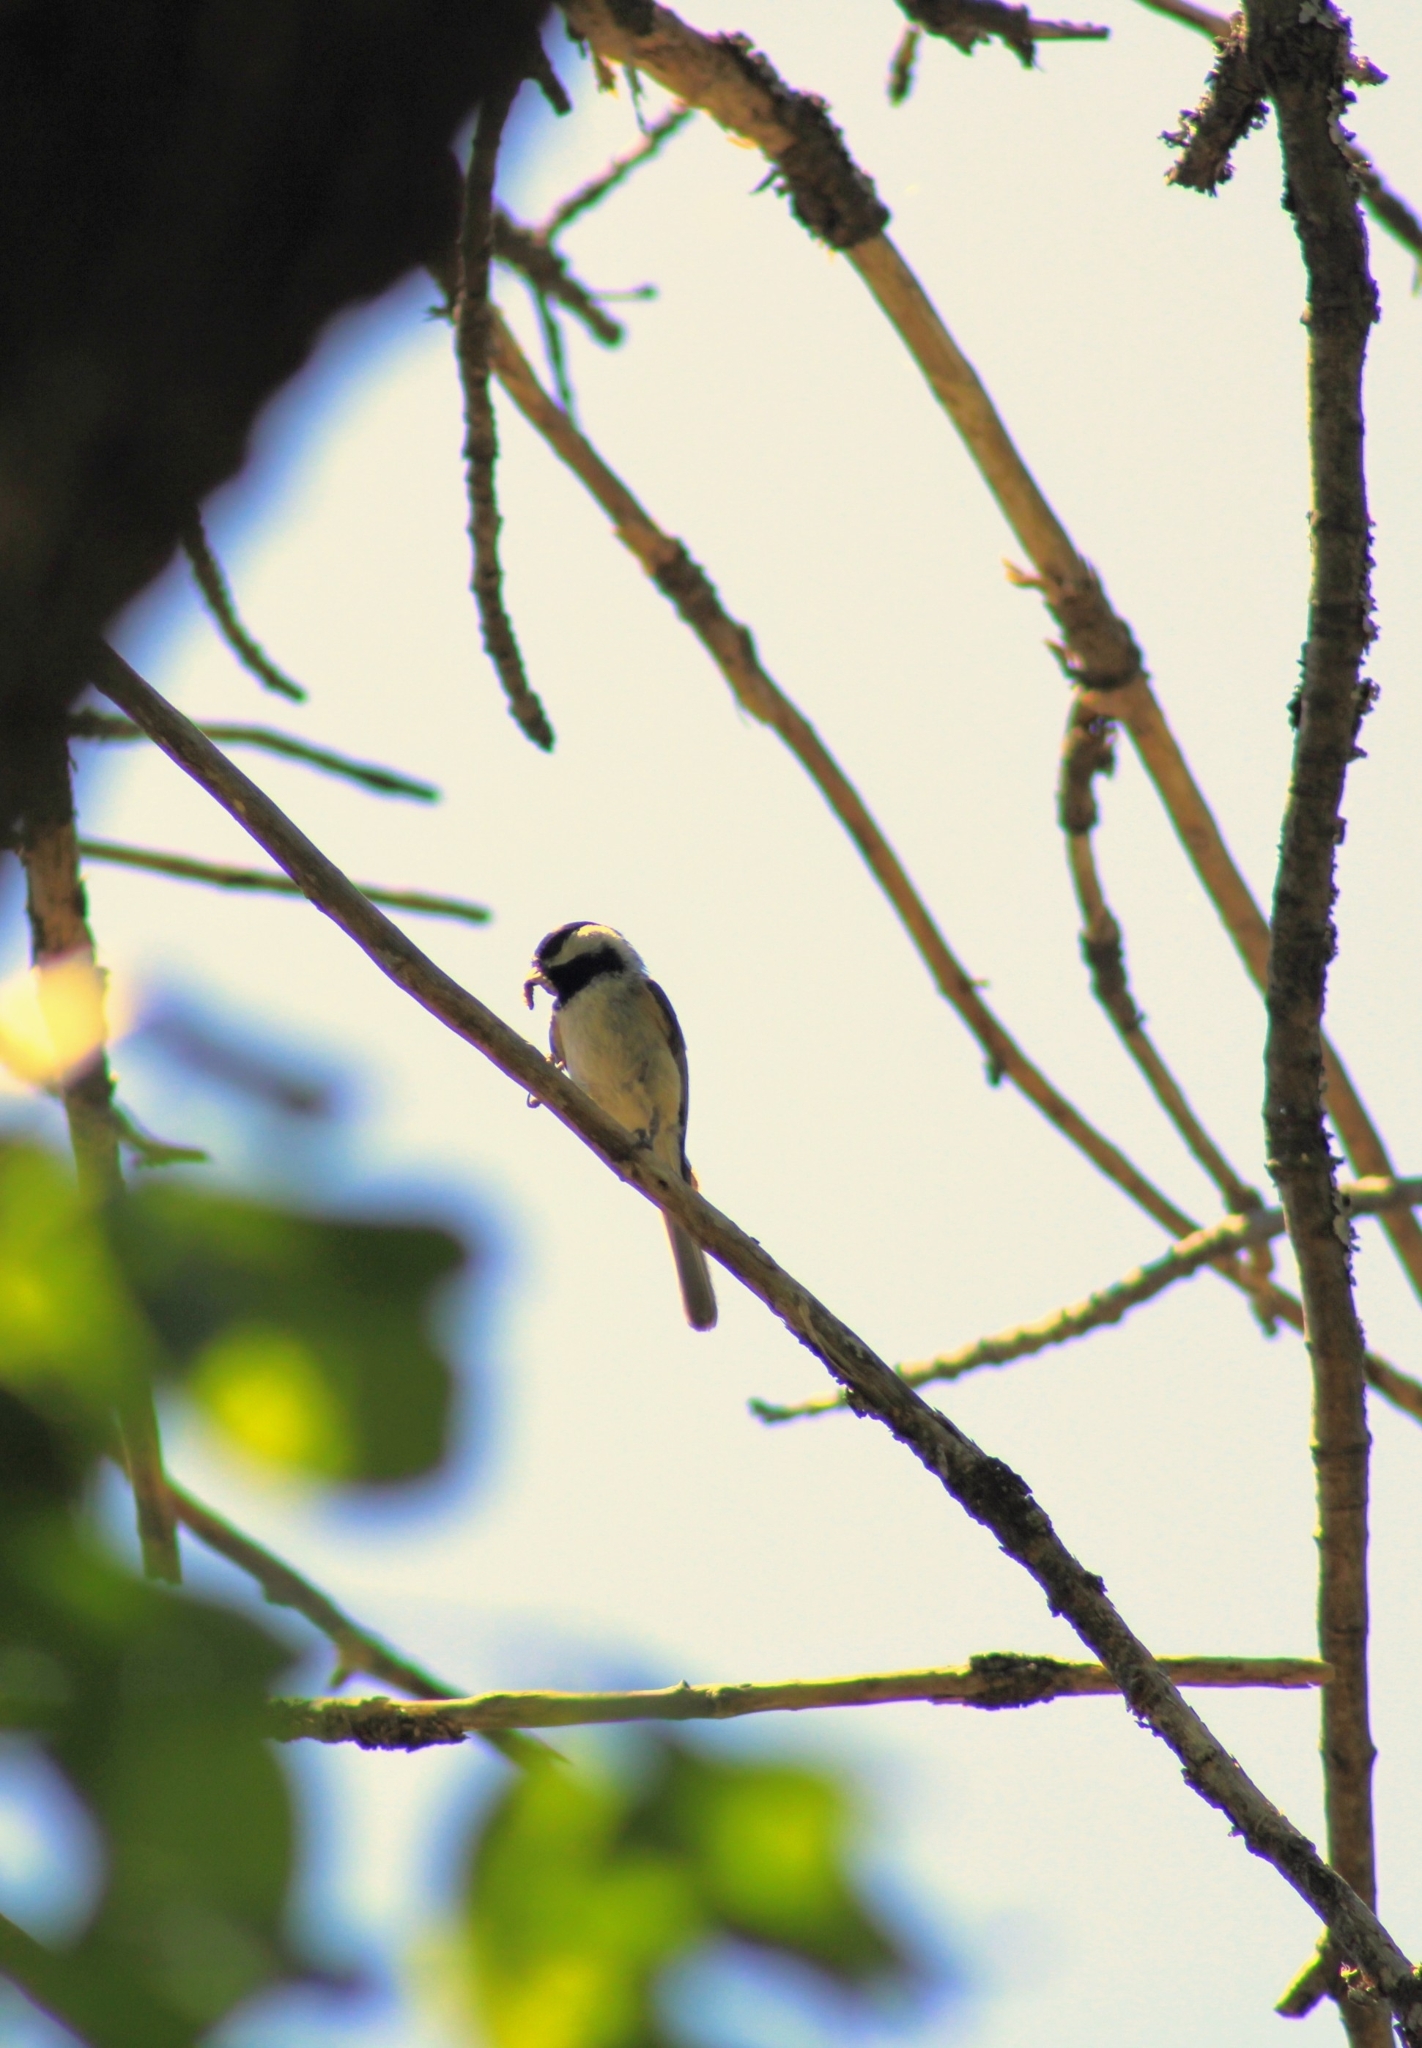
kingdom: Animalia
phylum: Chordata
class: Aves
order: Passeriformes
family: Paridae
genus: Poecile
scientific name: Poecile carolinensis
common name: Carolina chickadee
